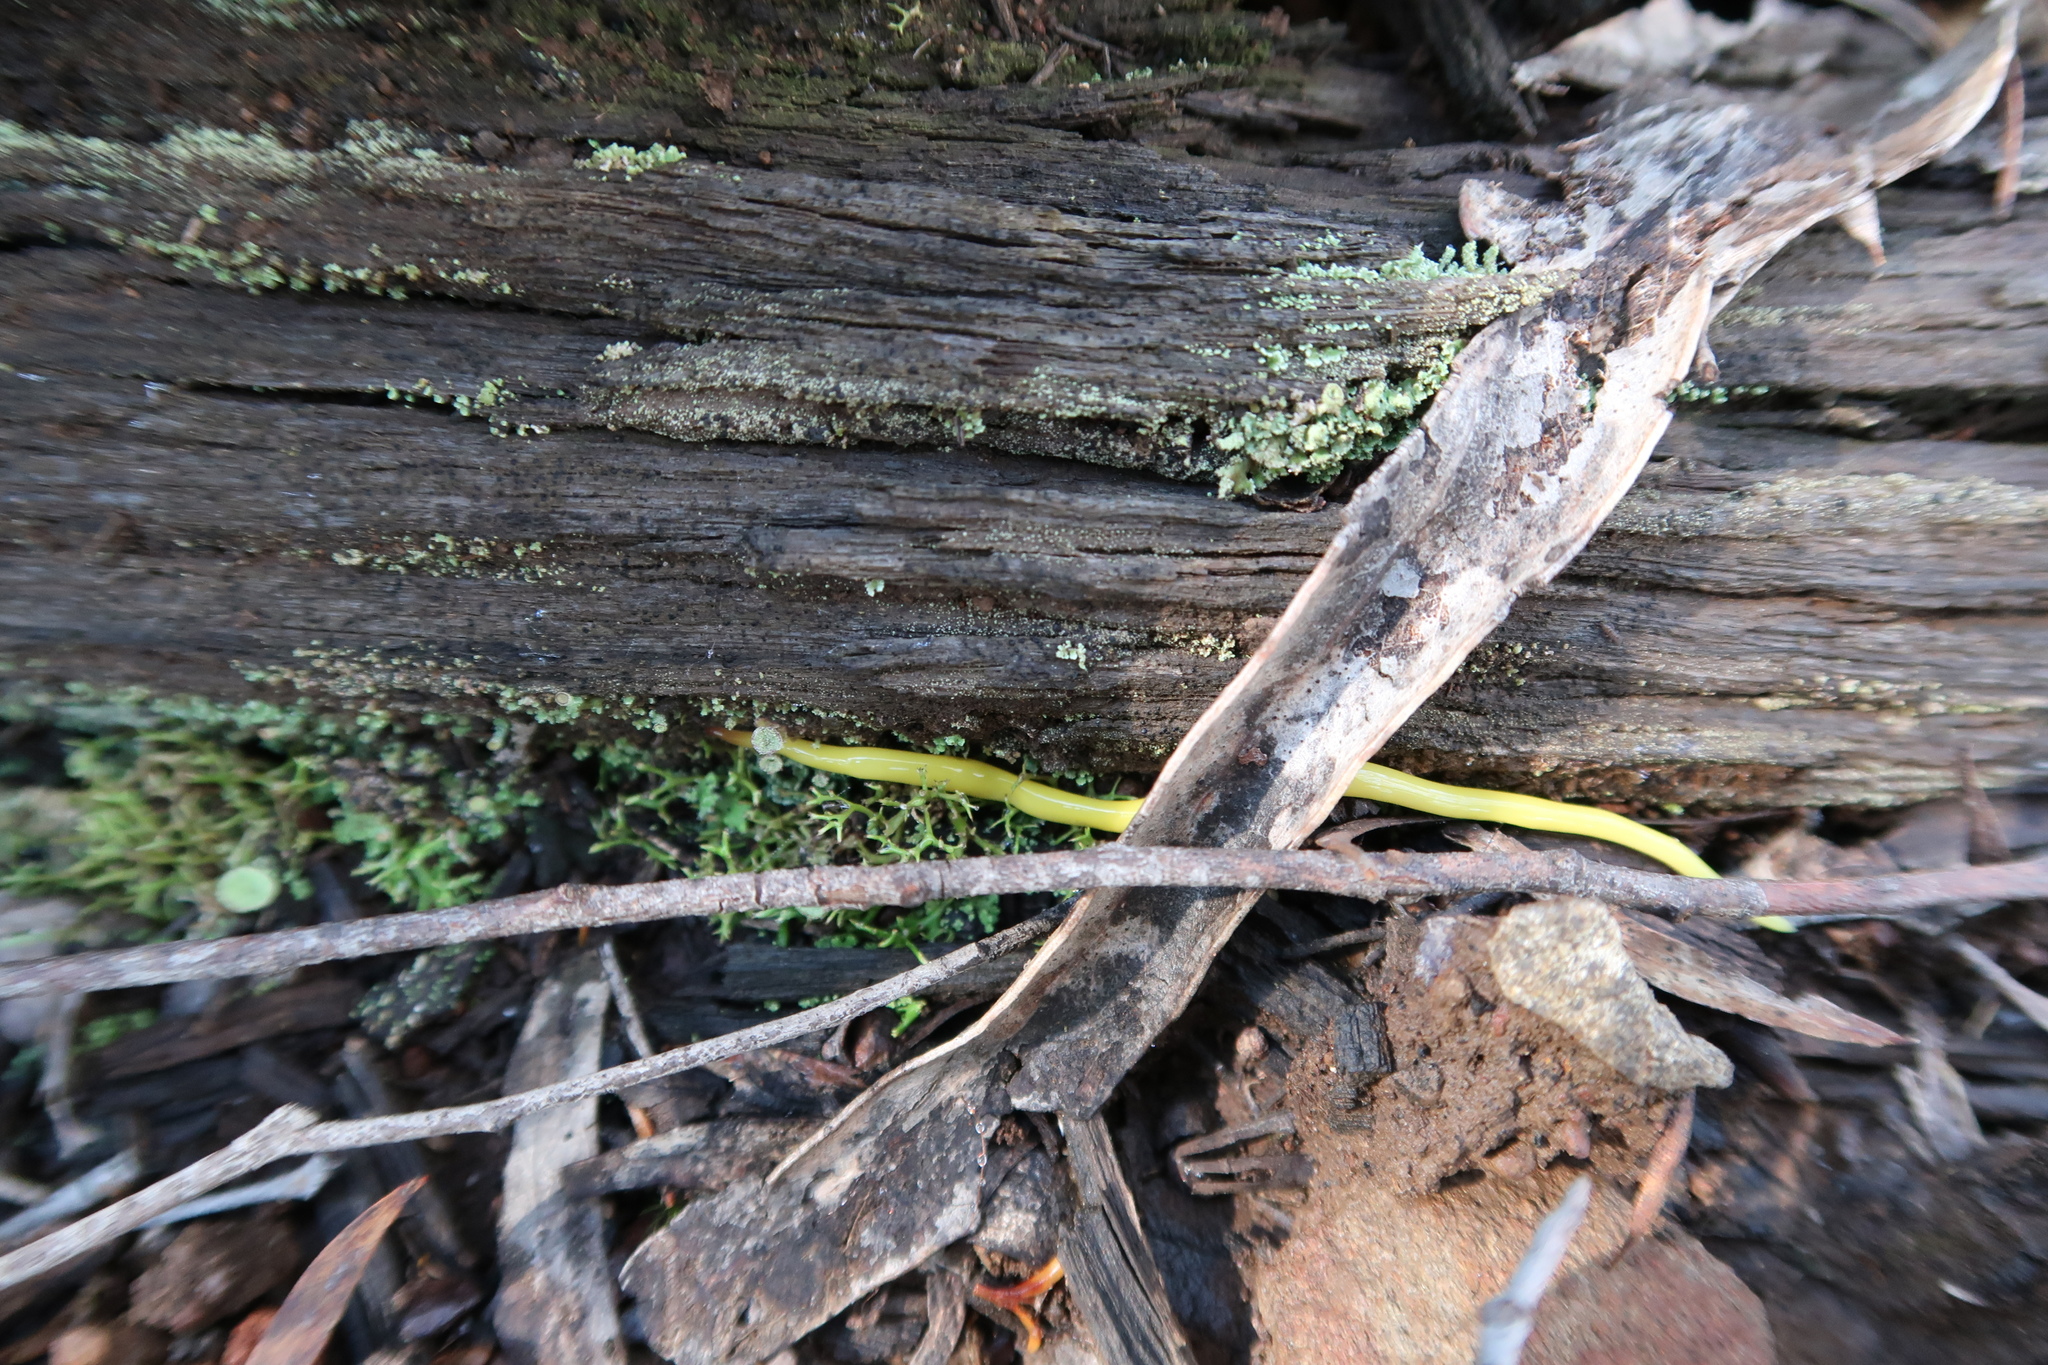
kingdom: Animalia
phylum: Platyhelminthes
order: Tricladida
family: Geoplanidae
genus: Fletchamia
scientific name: Fletchamia sugdeni
